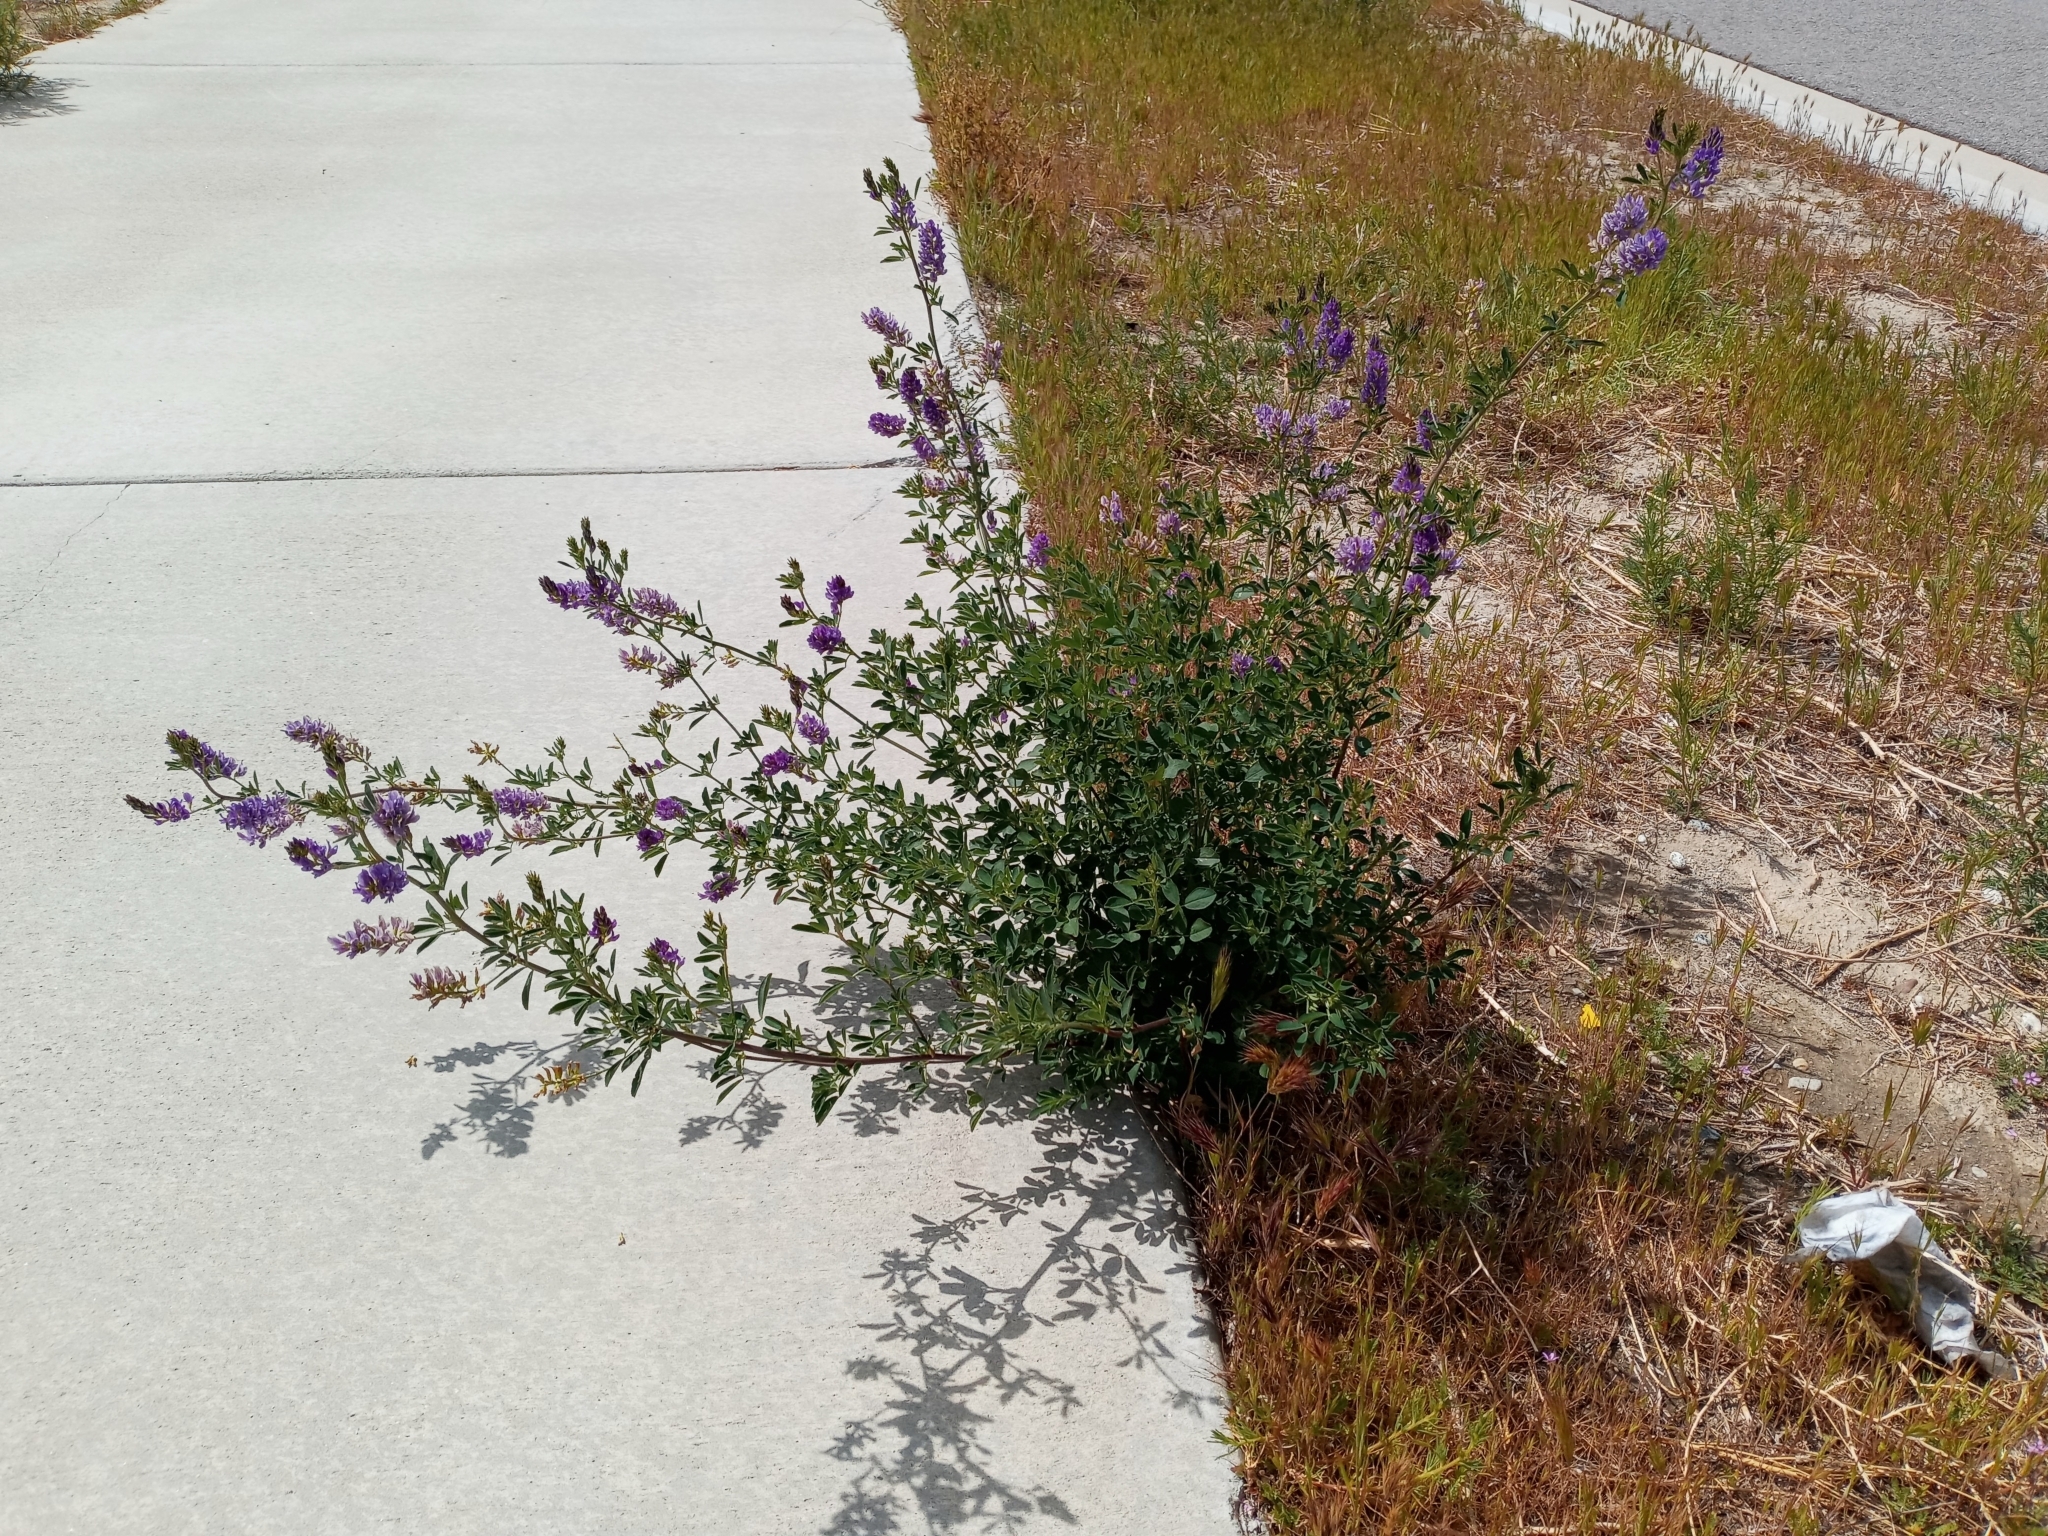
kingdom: Plantae
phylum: Tracheophyta
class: Magnoliopsida
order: Fabales
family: Fabaceae
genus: Medicago
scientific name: Medicago sativa
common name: Alfalfa
